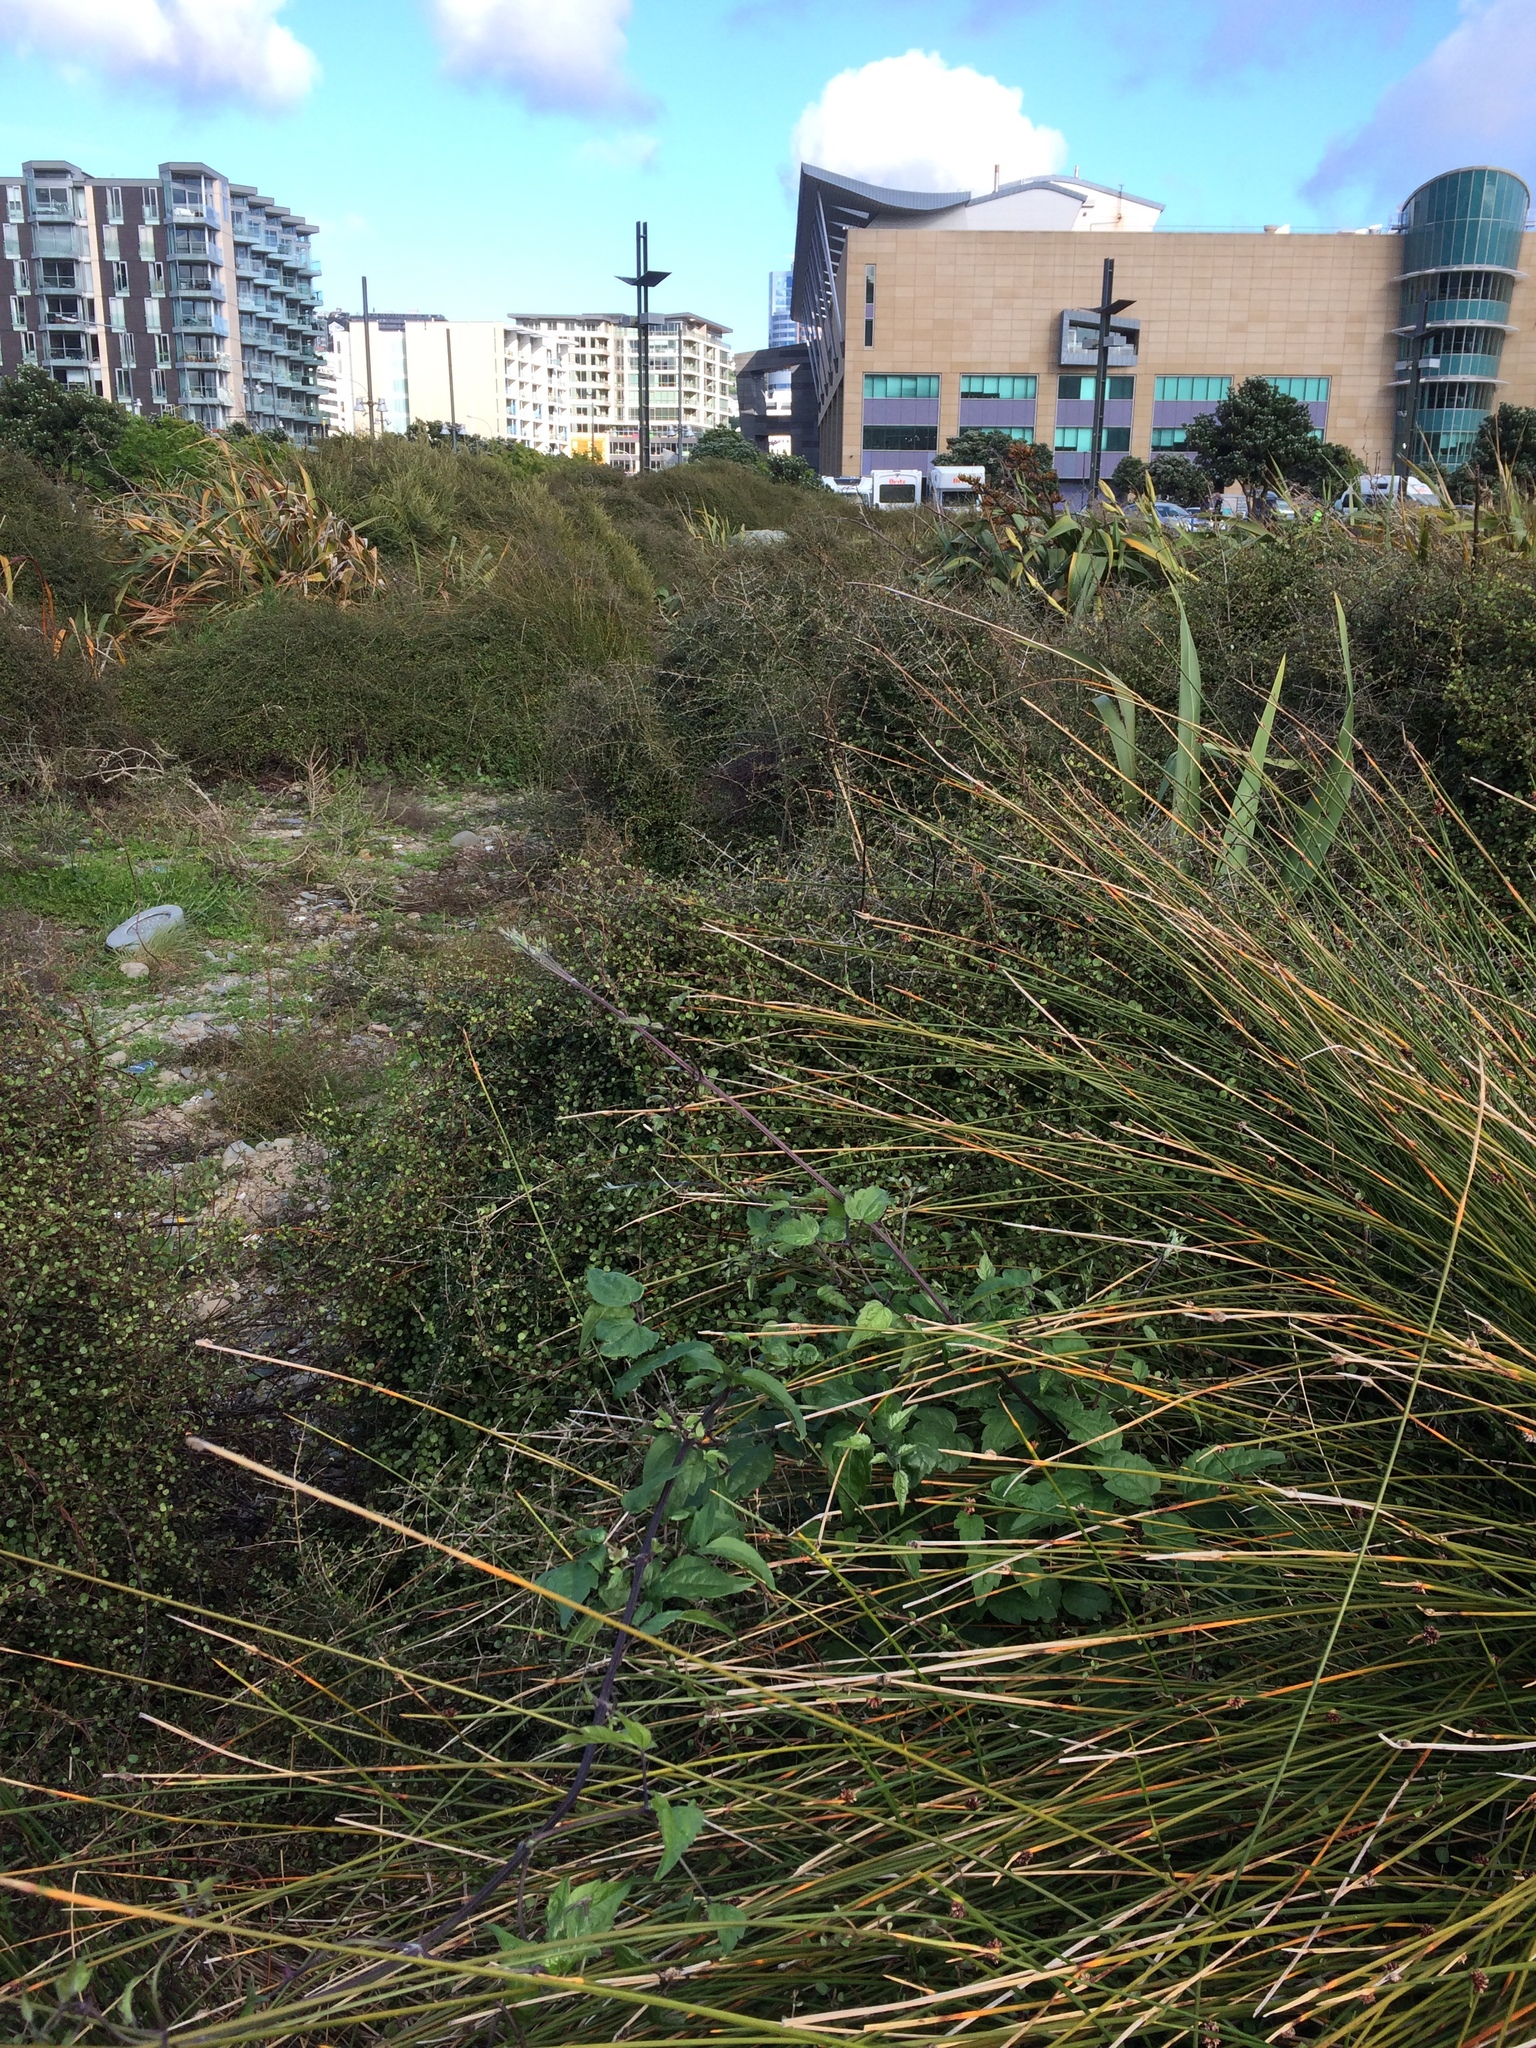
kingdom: Plantae
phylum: Tracheophyta
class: Magnoliopsida
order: Ranunculales
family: Ranunculaceae
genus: Clematis
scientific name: Clematis vitalba
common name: Evergreen clematis
